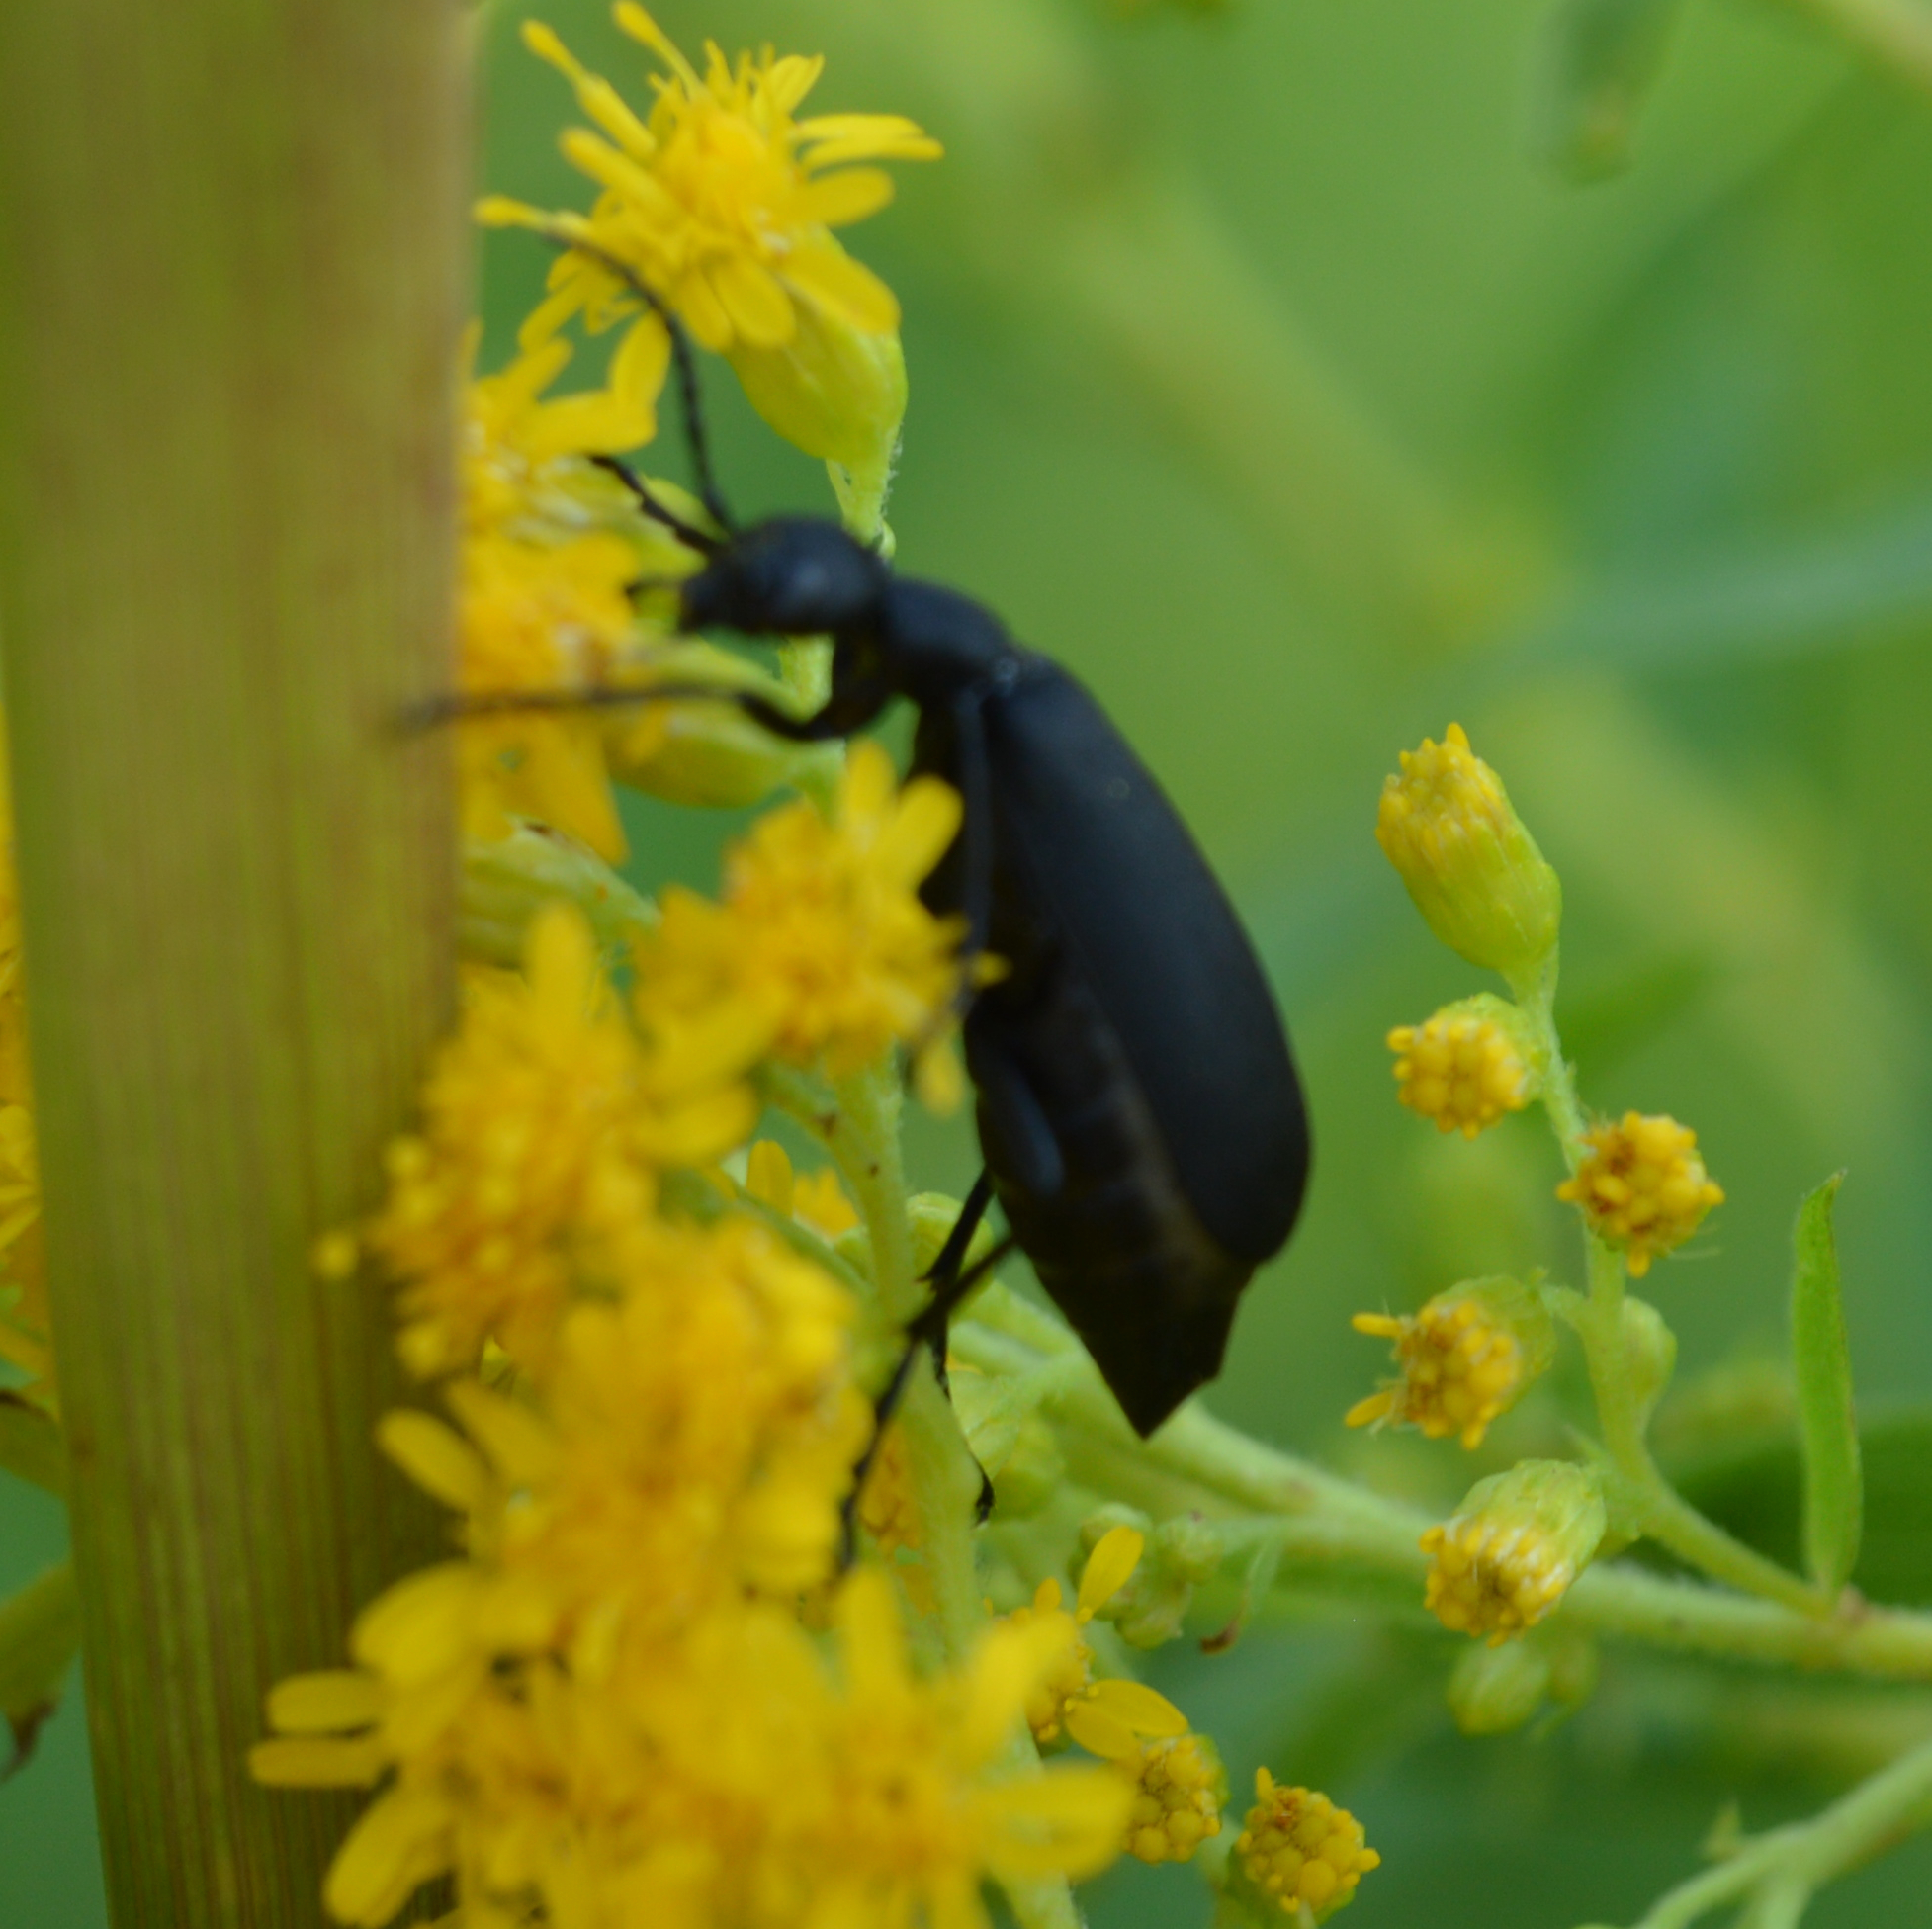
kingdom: Animalia
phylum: Arthropoda
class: Insecta
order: Coleoptera
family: Meloidae
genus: Epicauta
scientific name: Epicauta pensylvanica
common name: Black blister beetle
